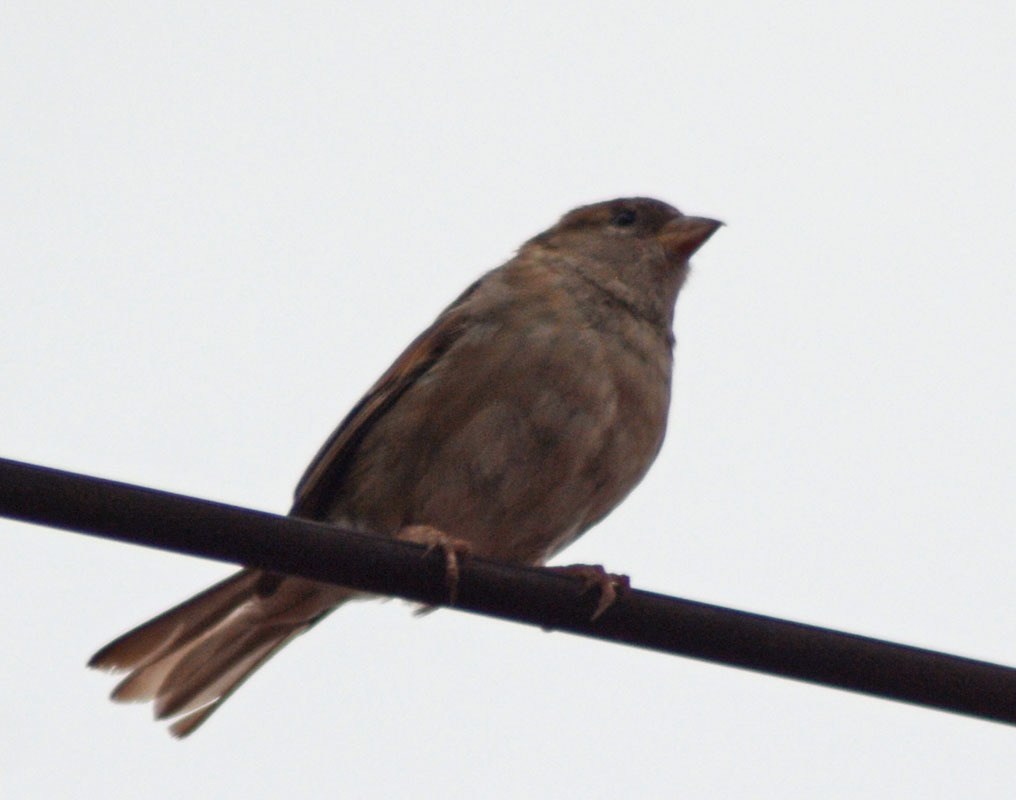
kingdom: Animalia
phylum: Chordata
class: Aves
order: Passeriformes
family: Passeridae
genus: Passer
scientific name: Passer domesticus
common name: House sparrow
